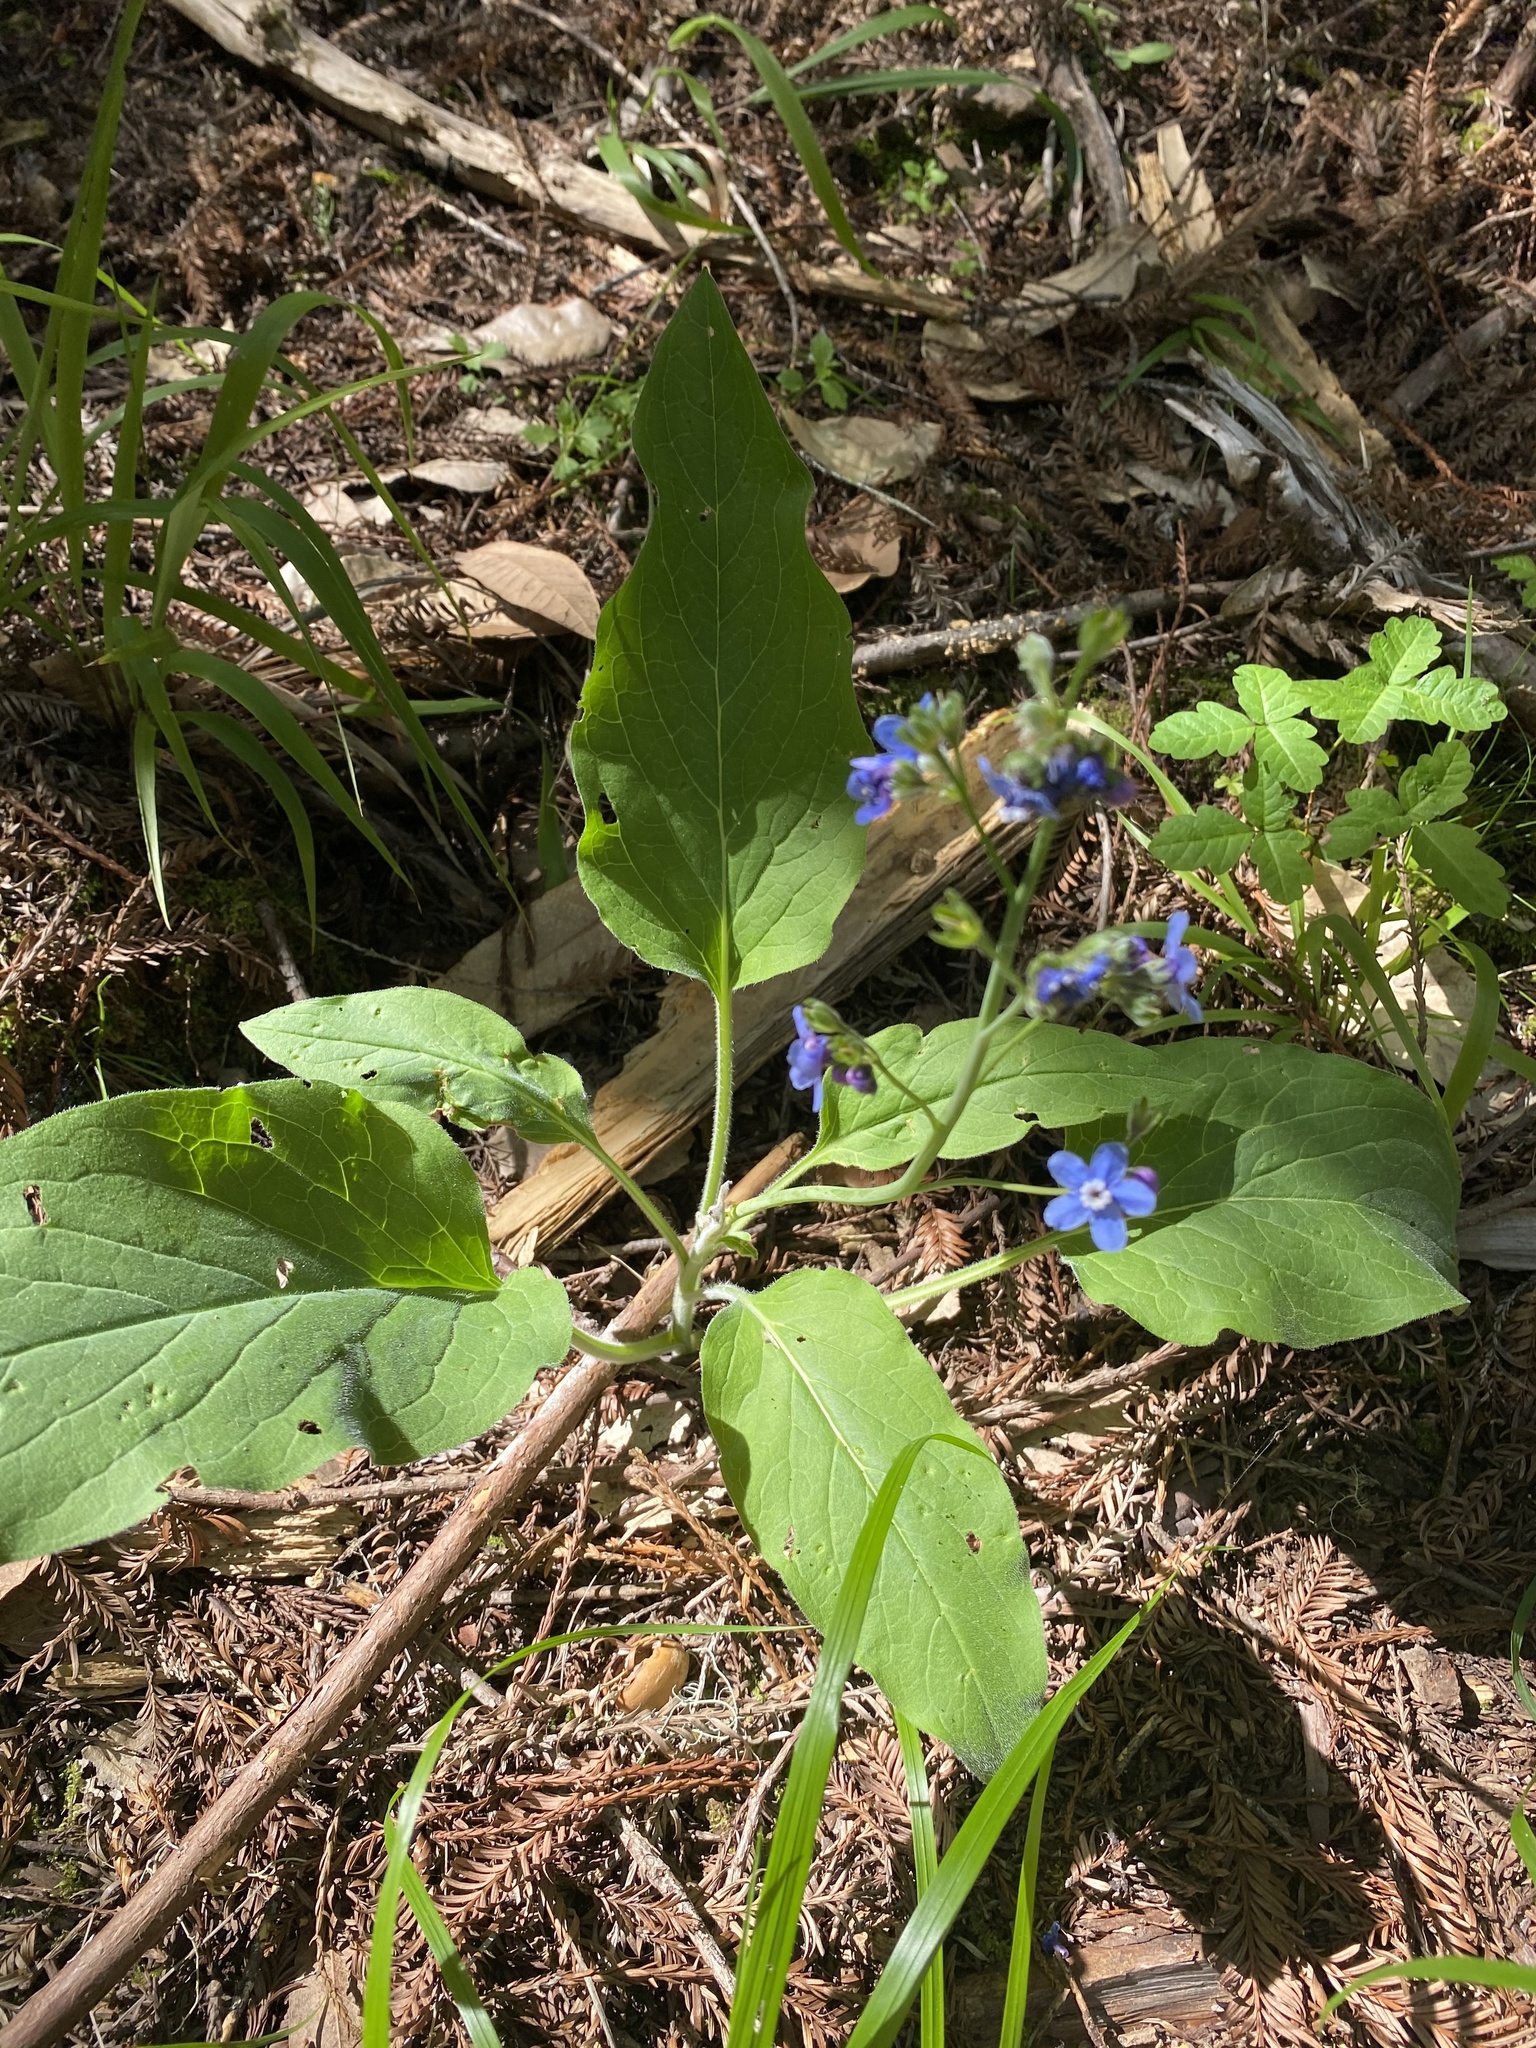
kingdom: Plantae
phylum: Tracheophyta
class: Magnoliopsida
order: Boraginales
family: Boraginaceae
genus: Adelinia
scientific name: Adelinia grande
